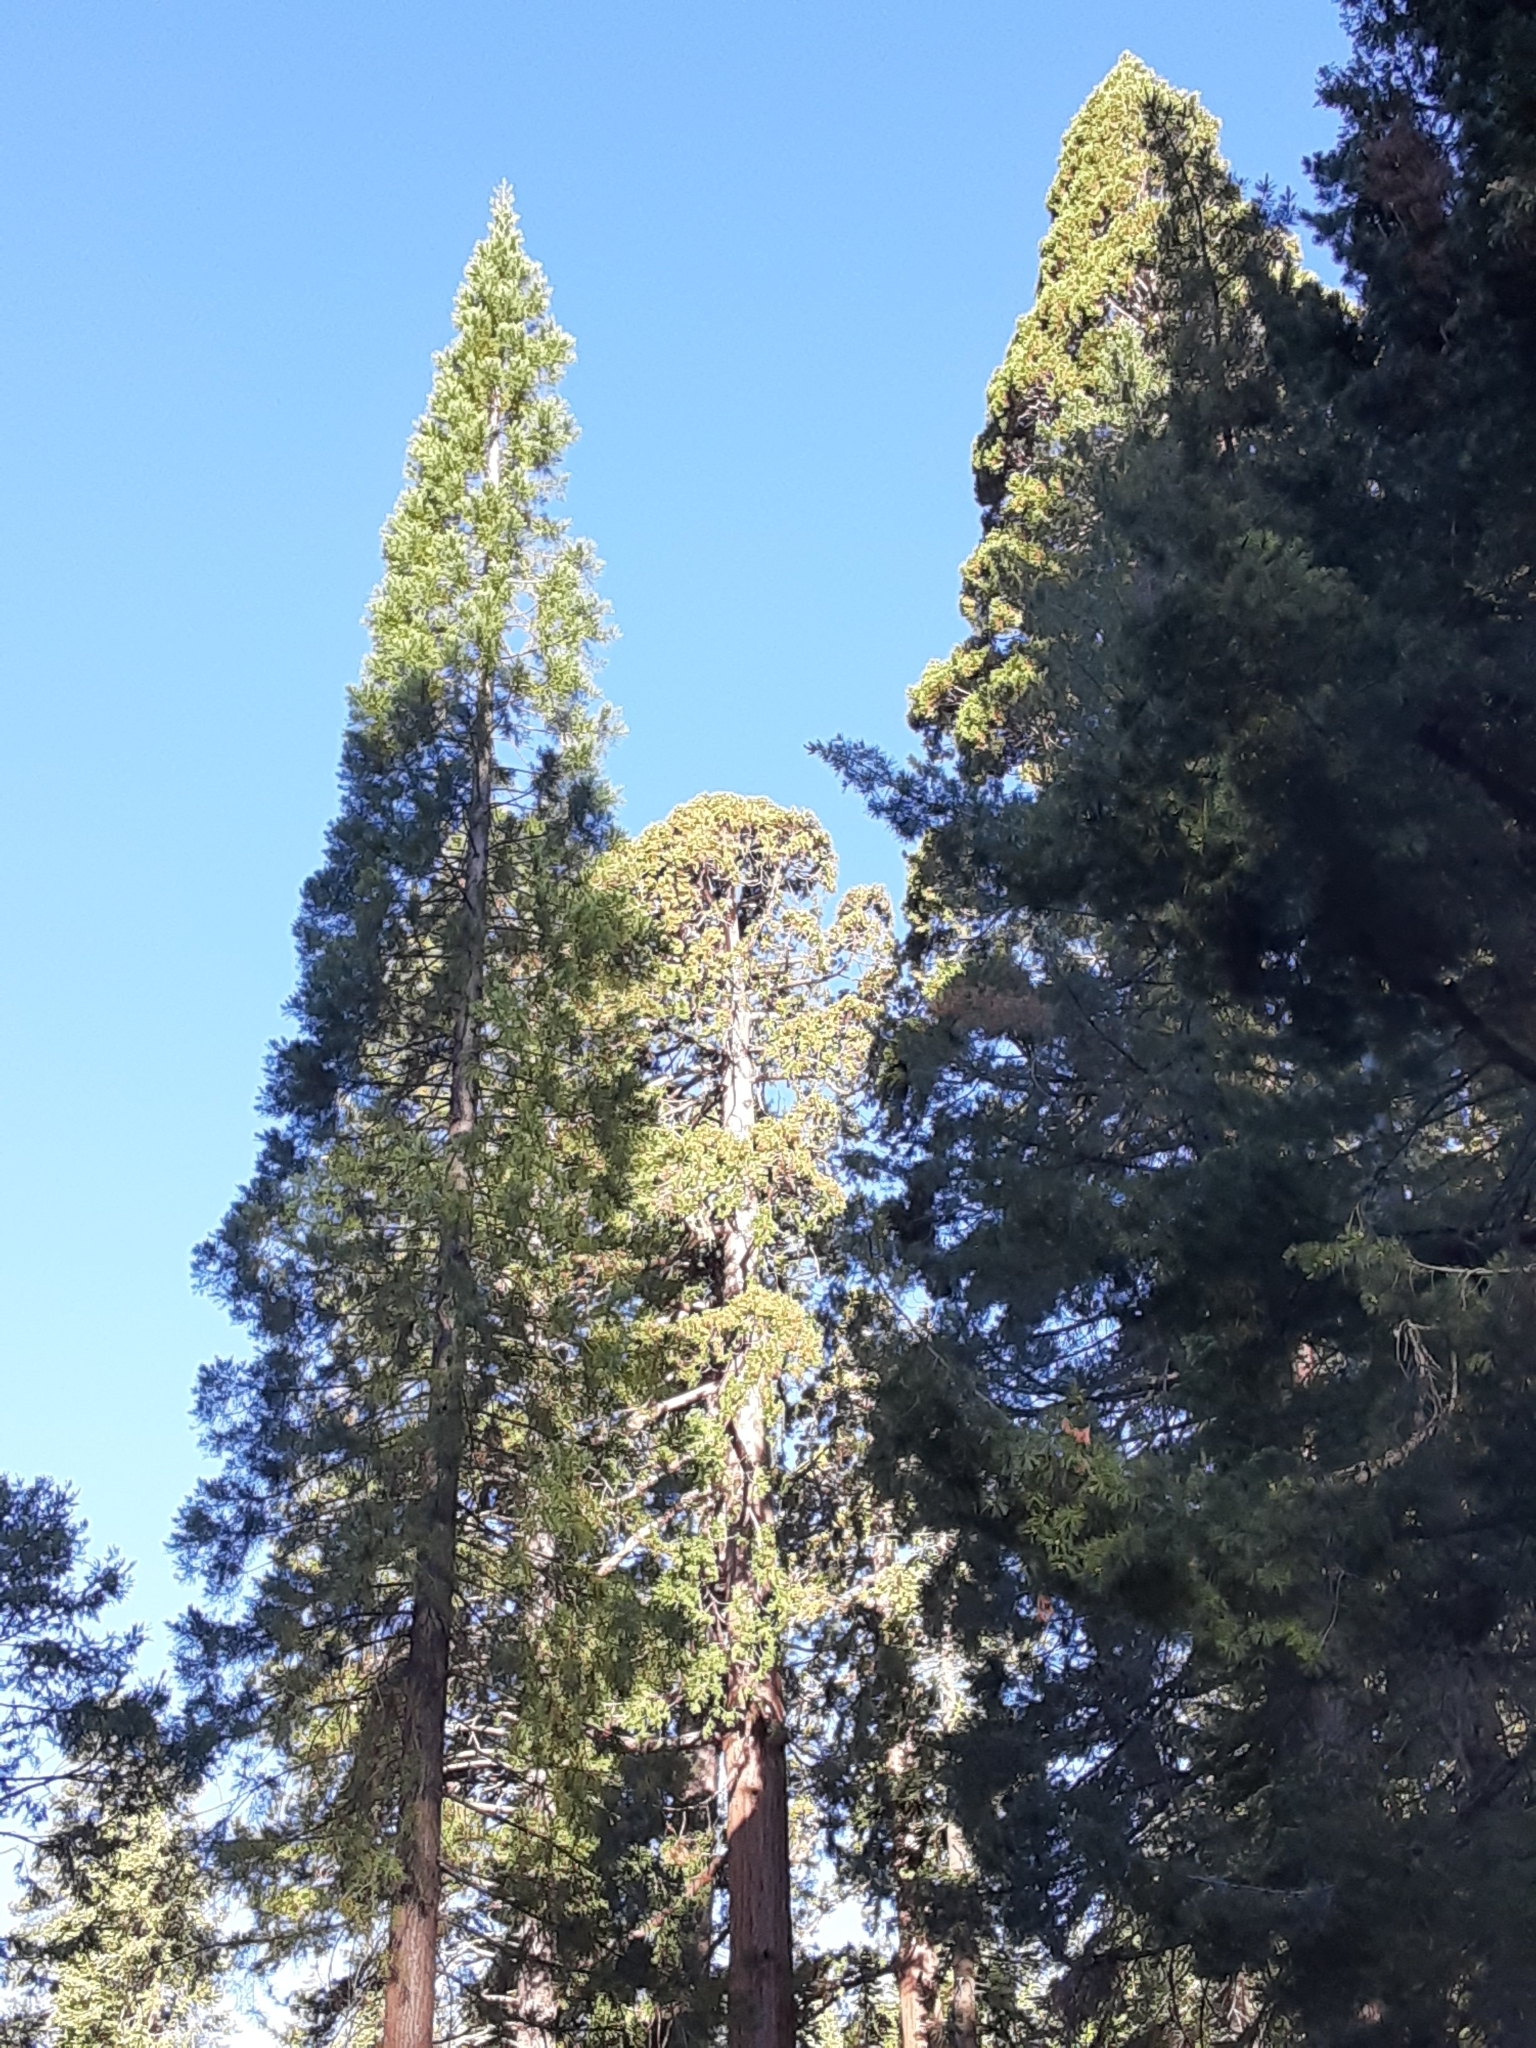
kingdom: Plantae
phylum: Tracheophyta
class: Pinopsida
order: Pinales
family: Cupressaceae
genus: Sequoiadendron
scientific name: Sequoiadendron giganteum
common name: Wellingtonia
